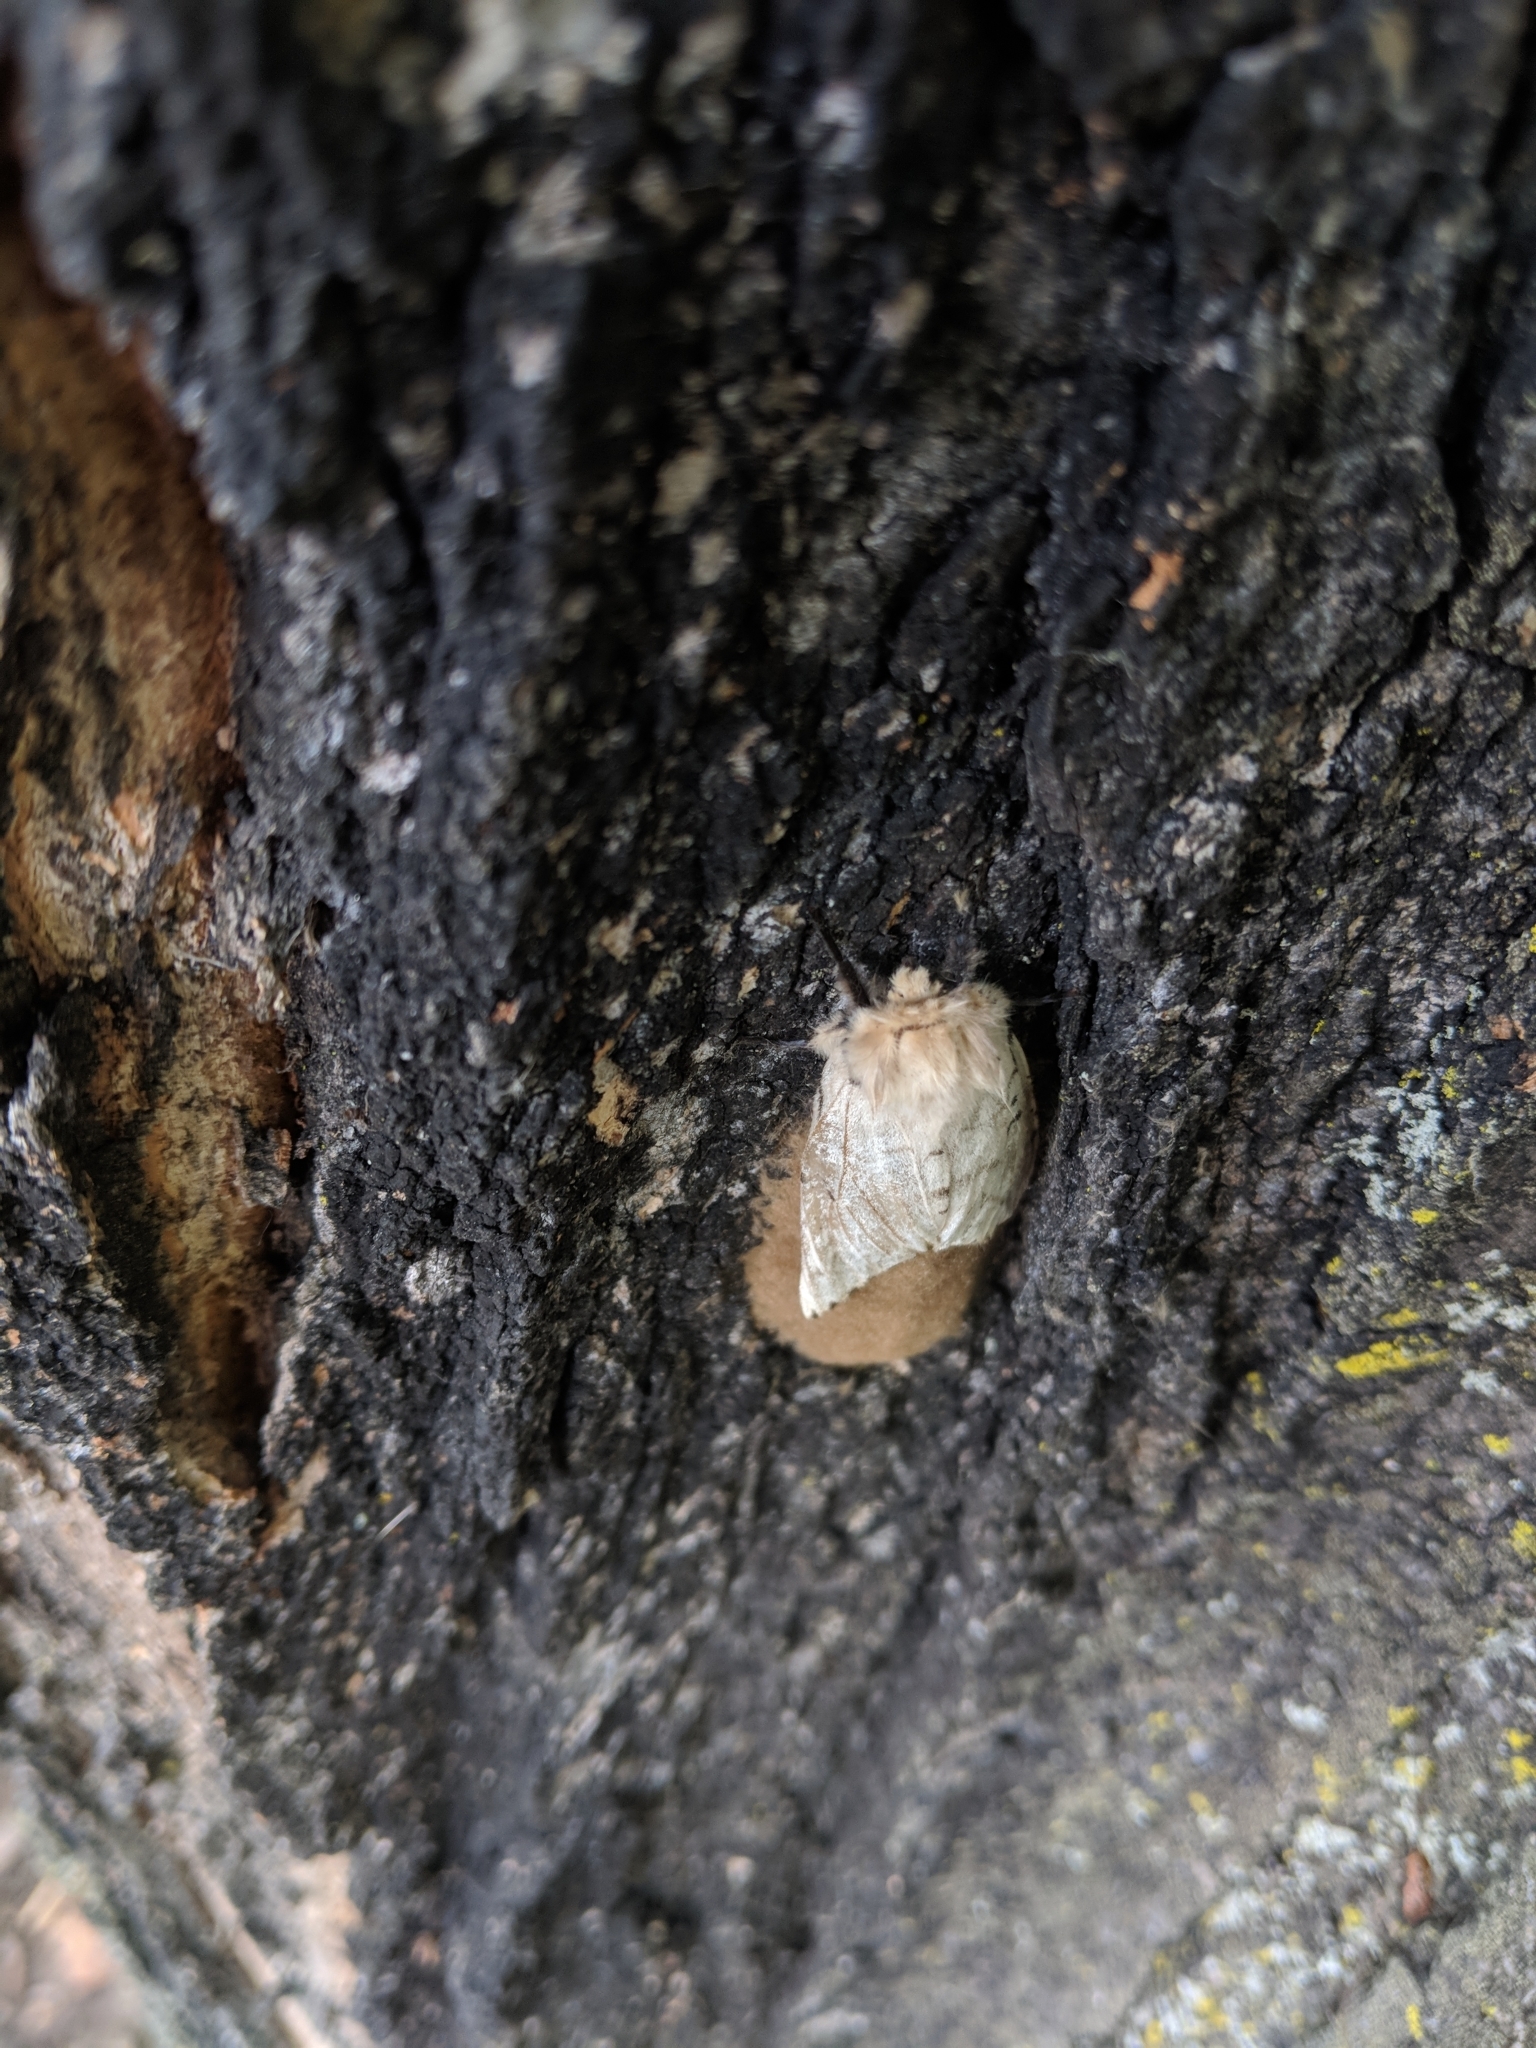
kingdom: Animalia
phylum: Arthropoda
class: Insecta
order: Lepidoptera
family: Erebidae
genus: Lymantria
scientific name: Lymantria dispar
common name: Gypsy moth
